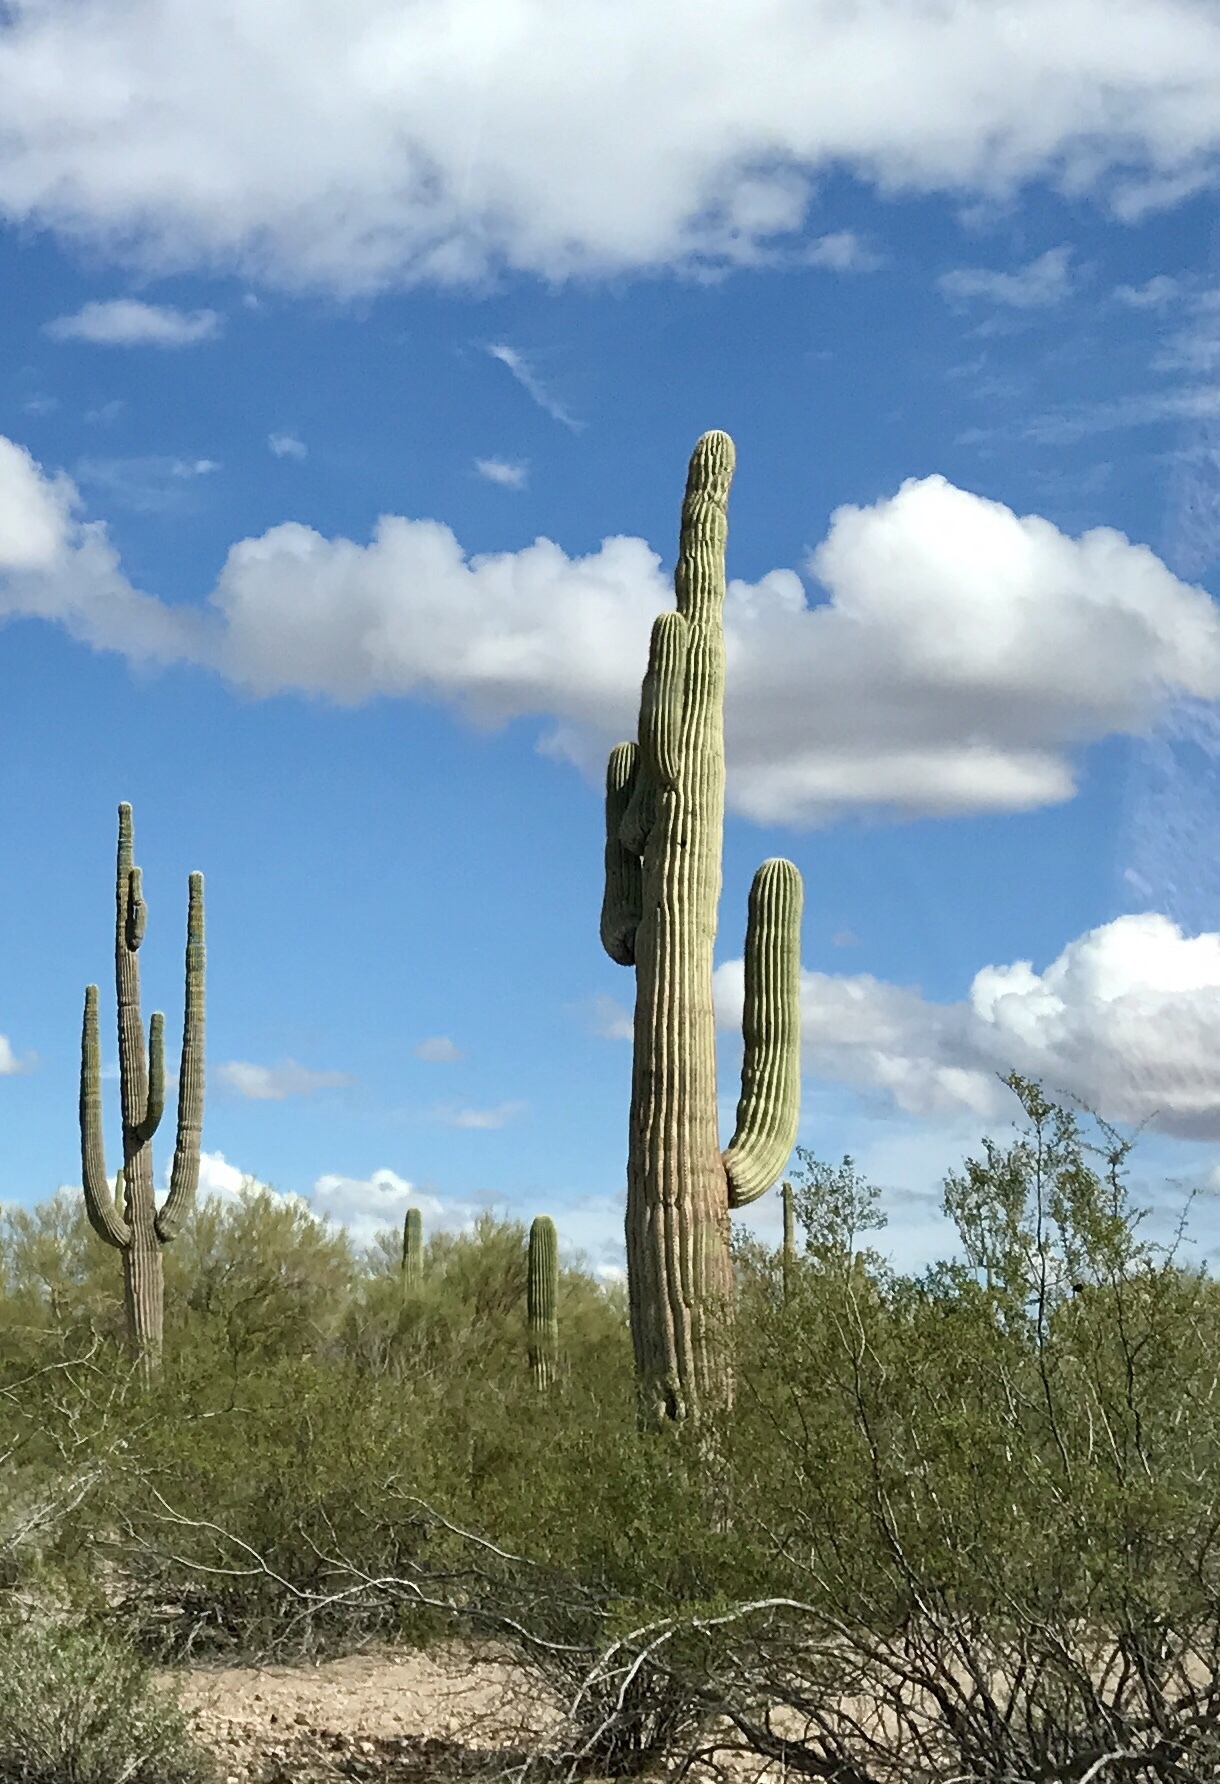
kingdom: Plantae
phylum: Tracheophyta
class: Magnoliopsida
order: Caryophyllales
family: Cactaceae
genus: Carnegiea
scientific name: Carnegiea gigantea
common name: Saguaro
